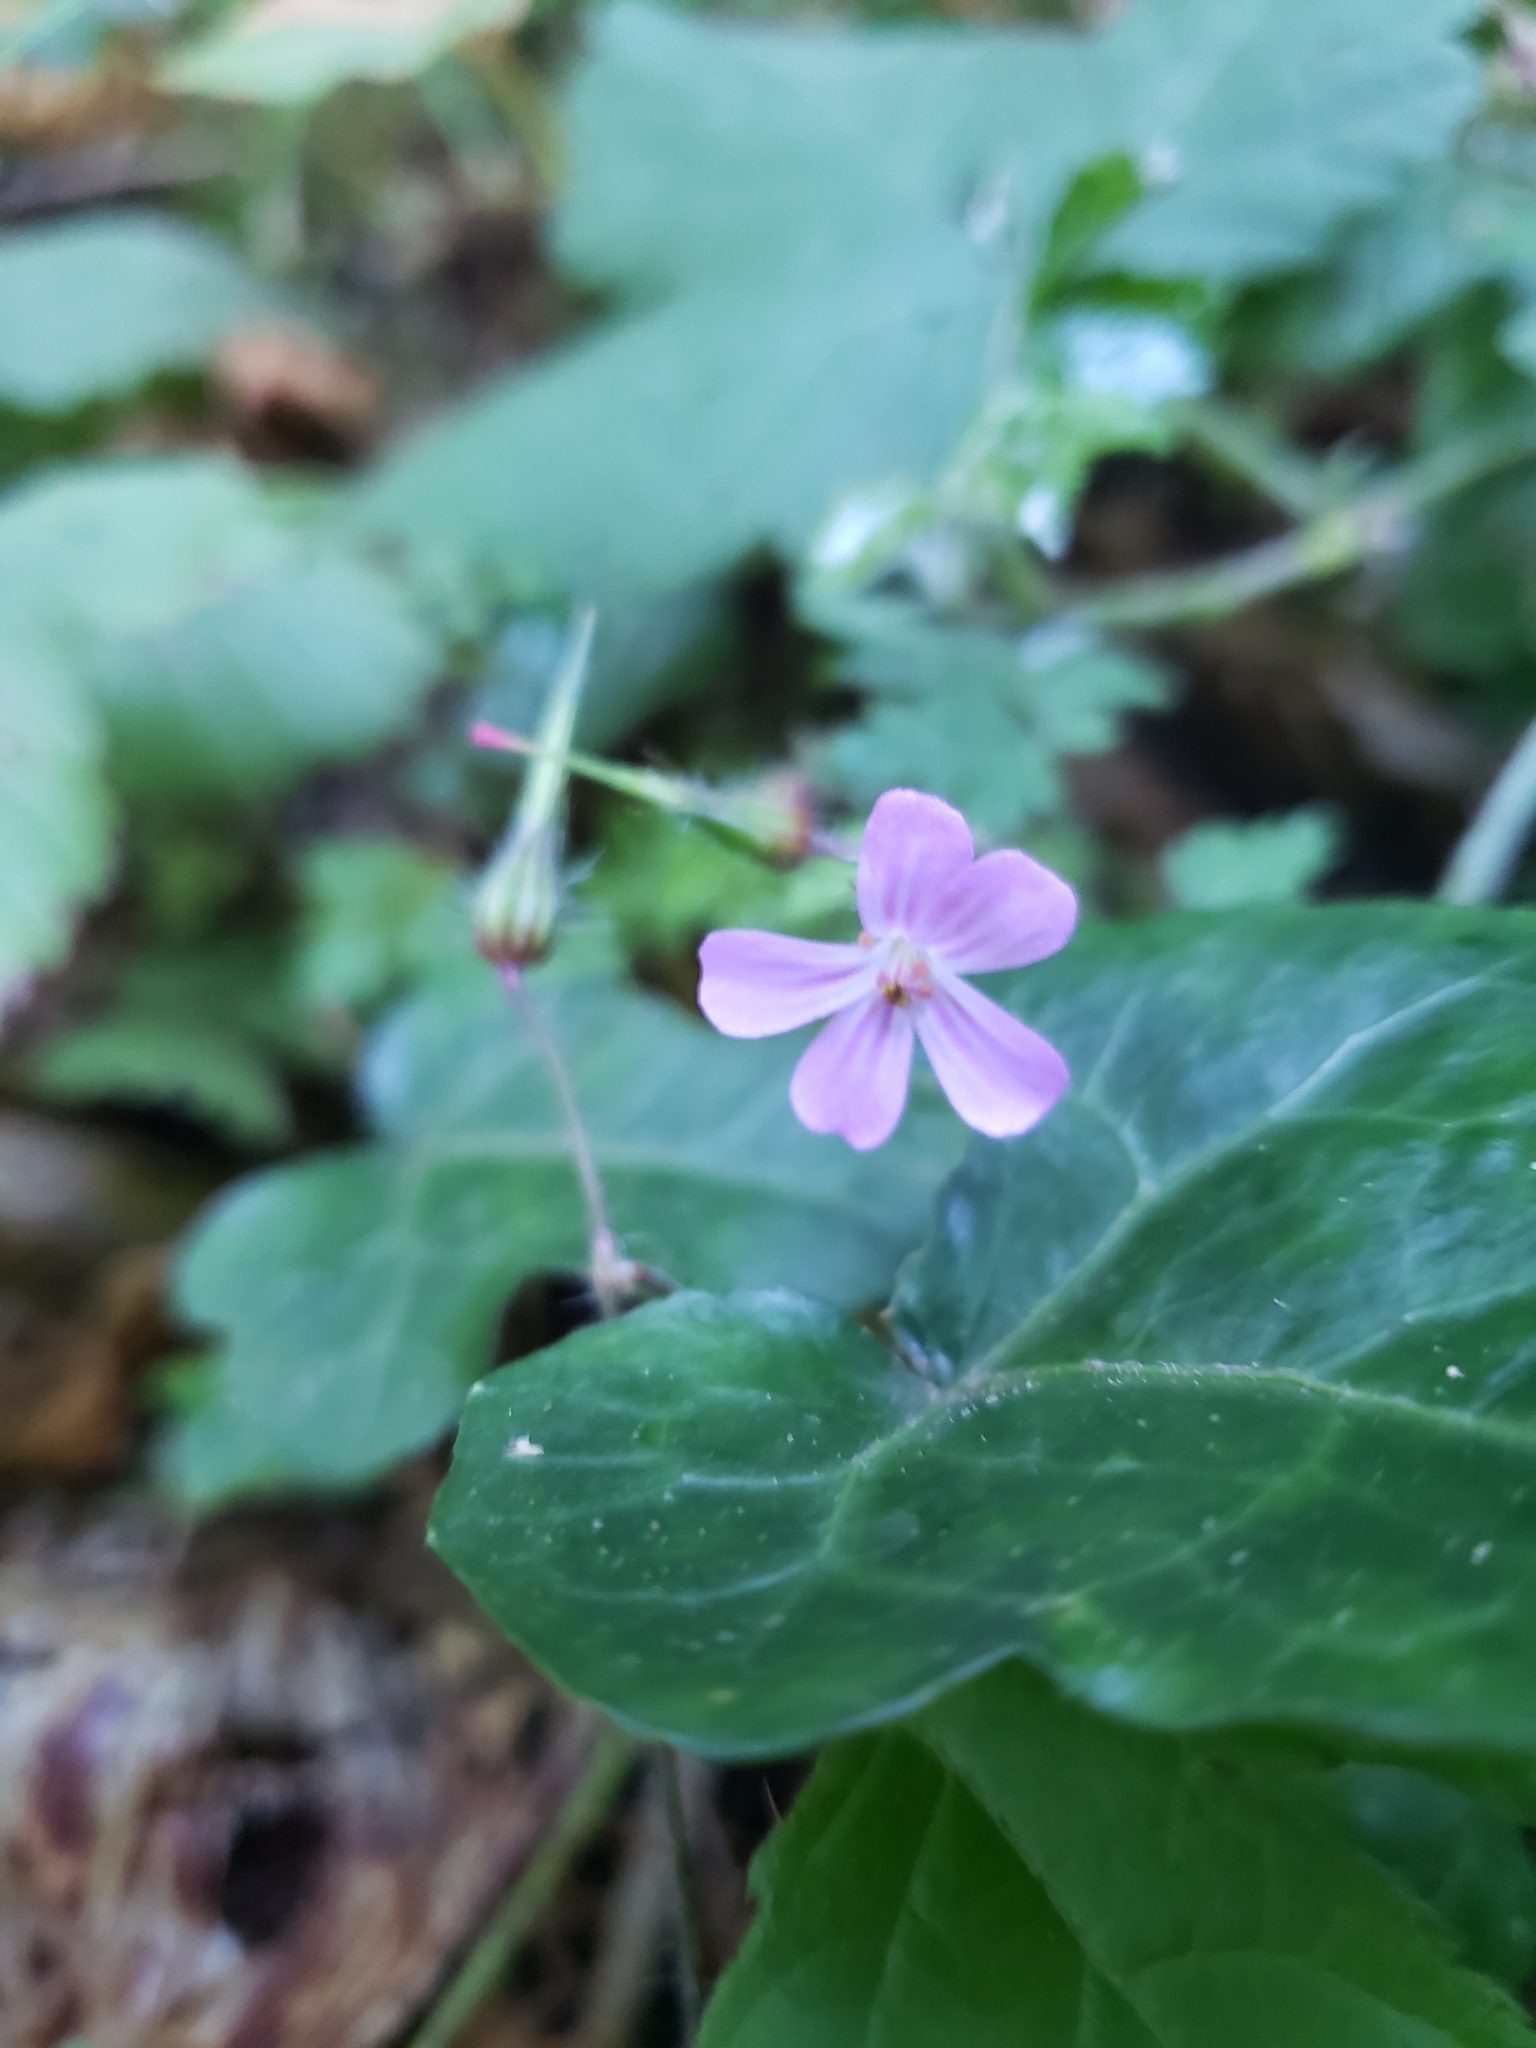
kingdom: Plantae
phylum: Tracheophyta
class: Magnoliopsida
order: Geraniales
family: Geraniaceae
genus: Geranium
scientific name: Geranium robertianum
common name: Herb-robert
